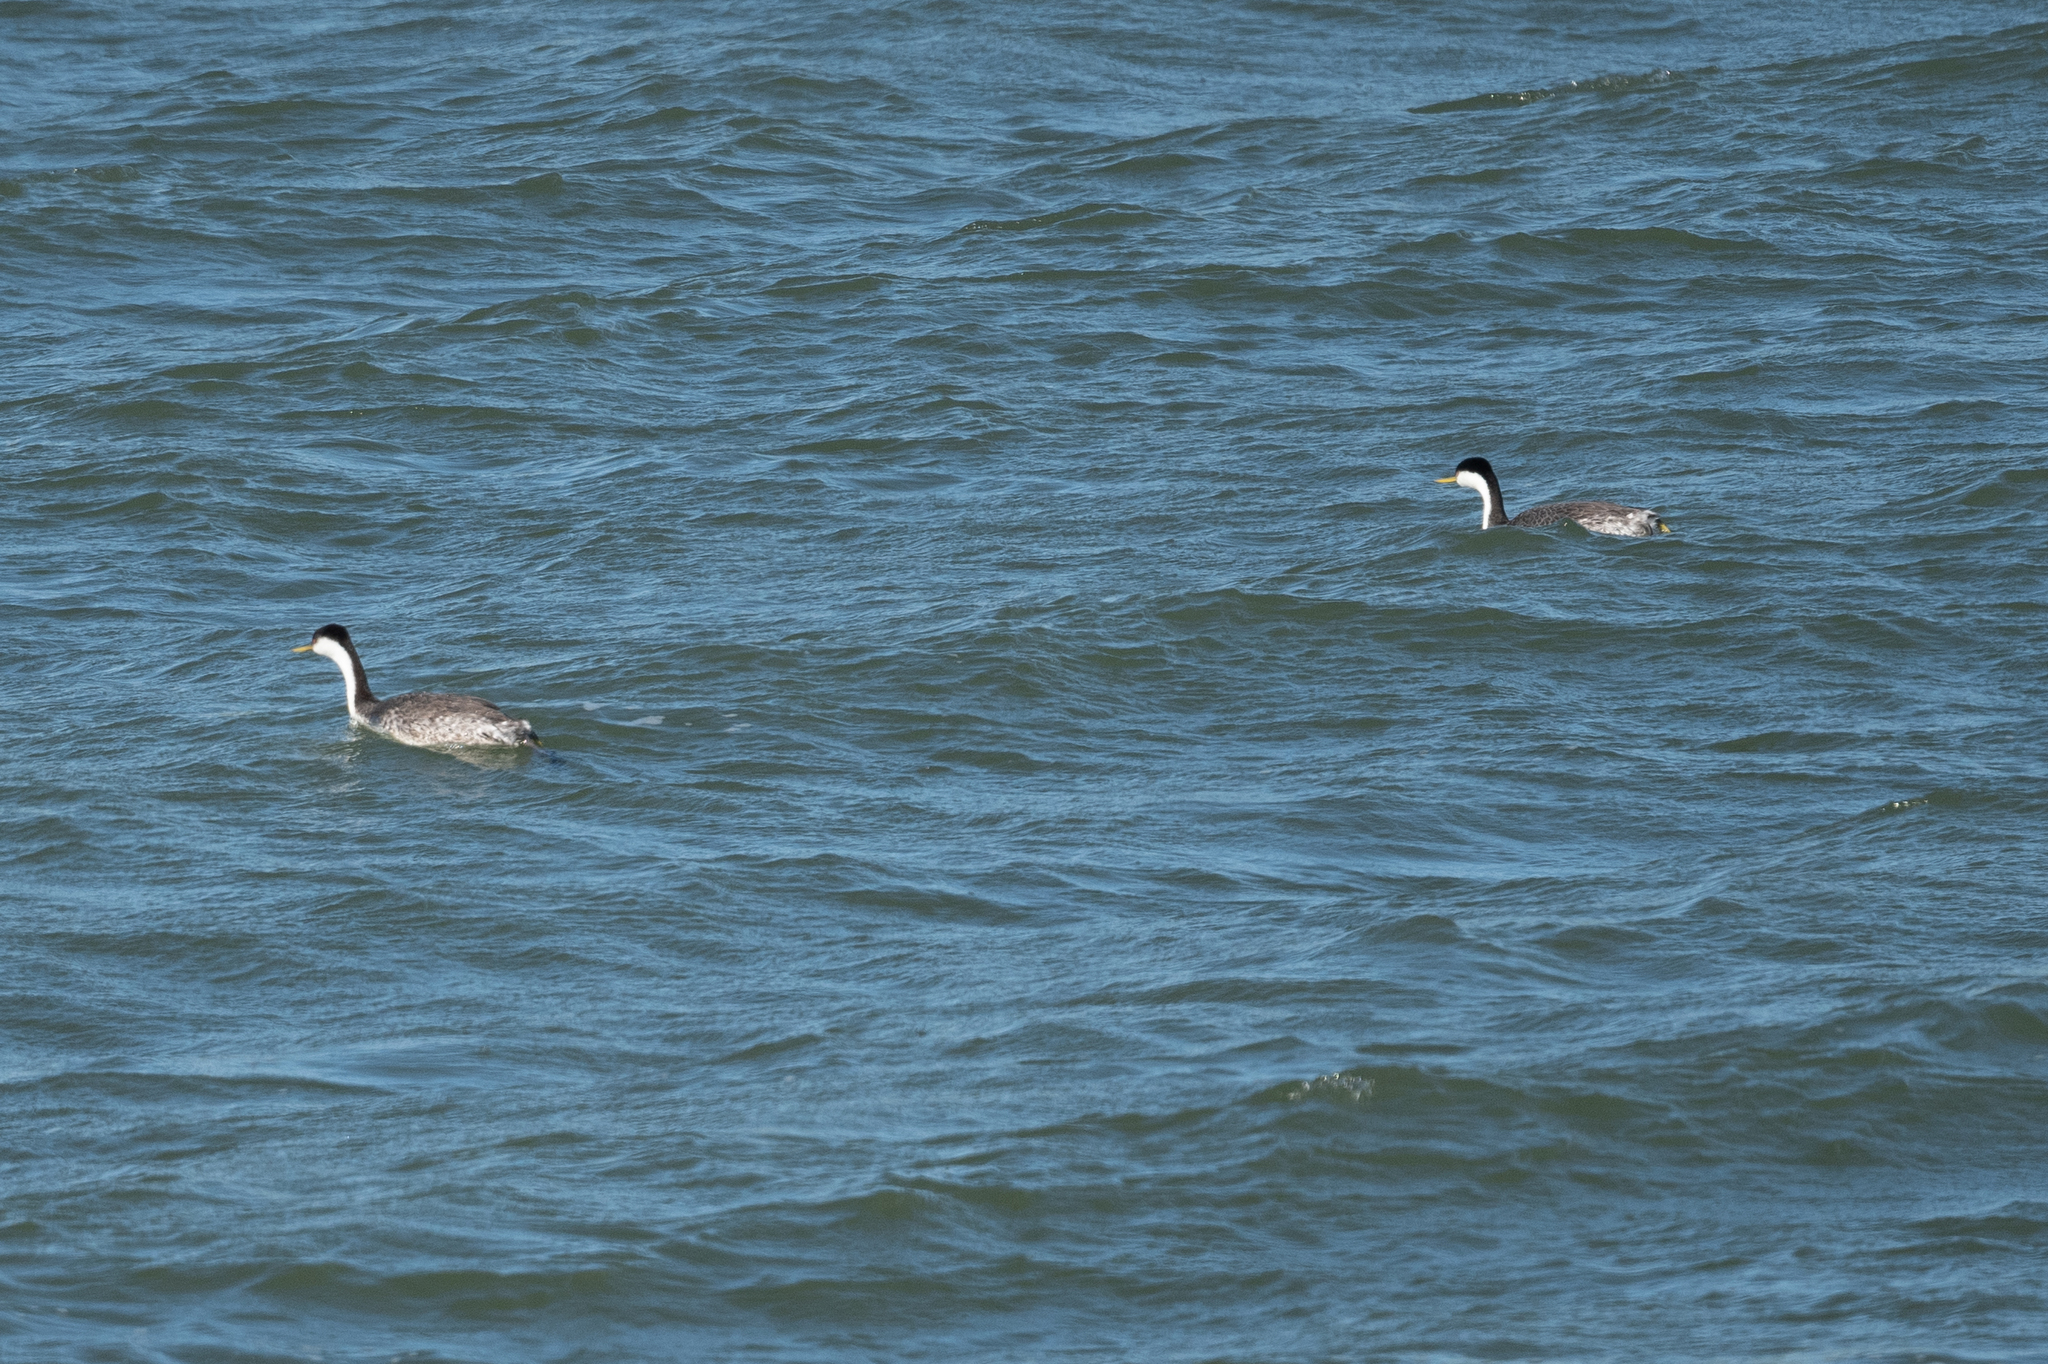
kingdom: Animalia
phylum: Chordata
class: Aves
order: Podicipediformes
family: Podicipedidae
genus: Aechmophorus
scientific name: Aechmophorus occidentalis
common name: Western grebe
